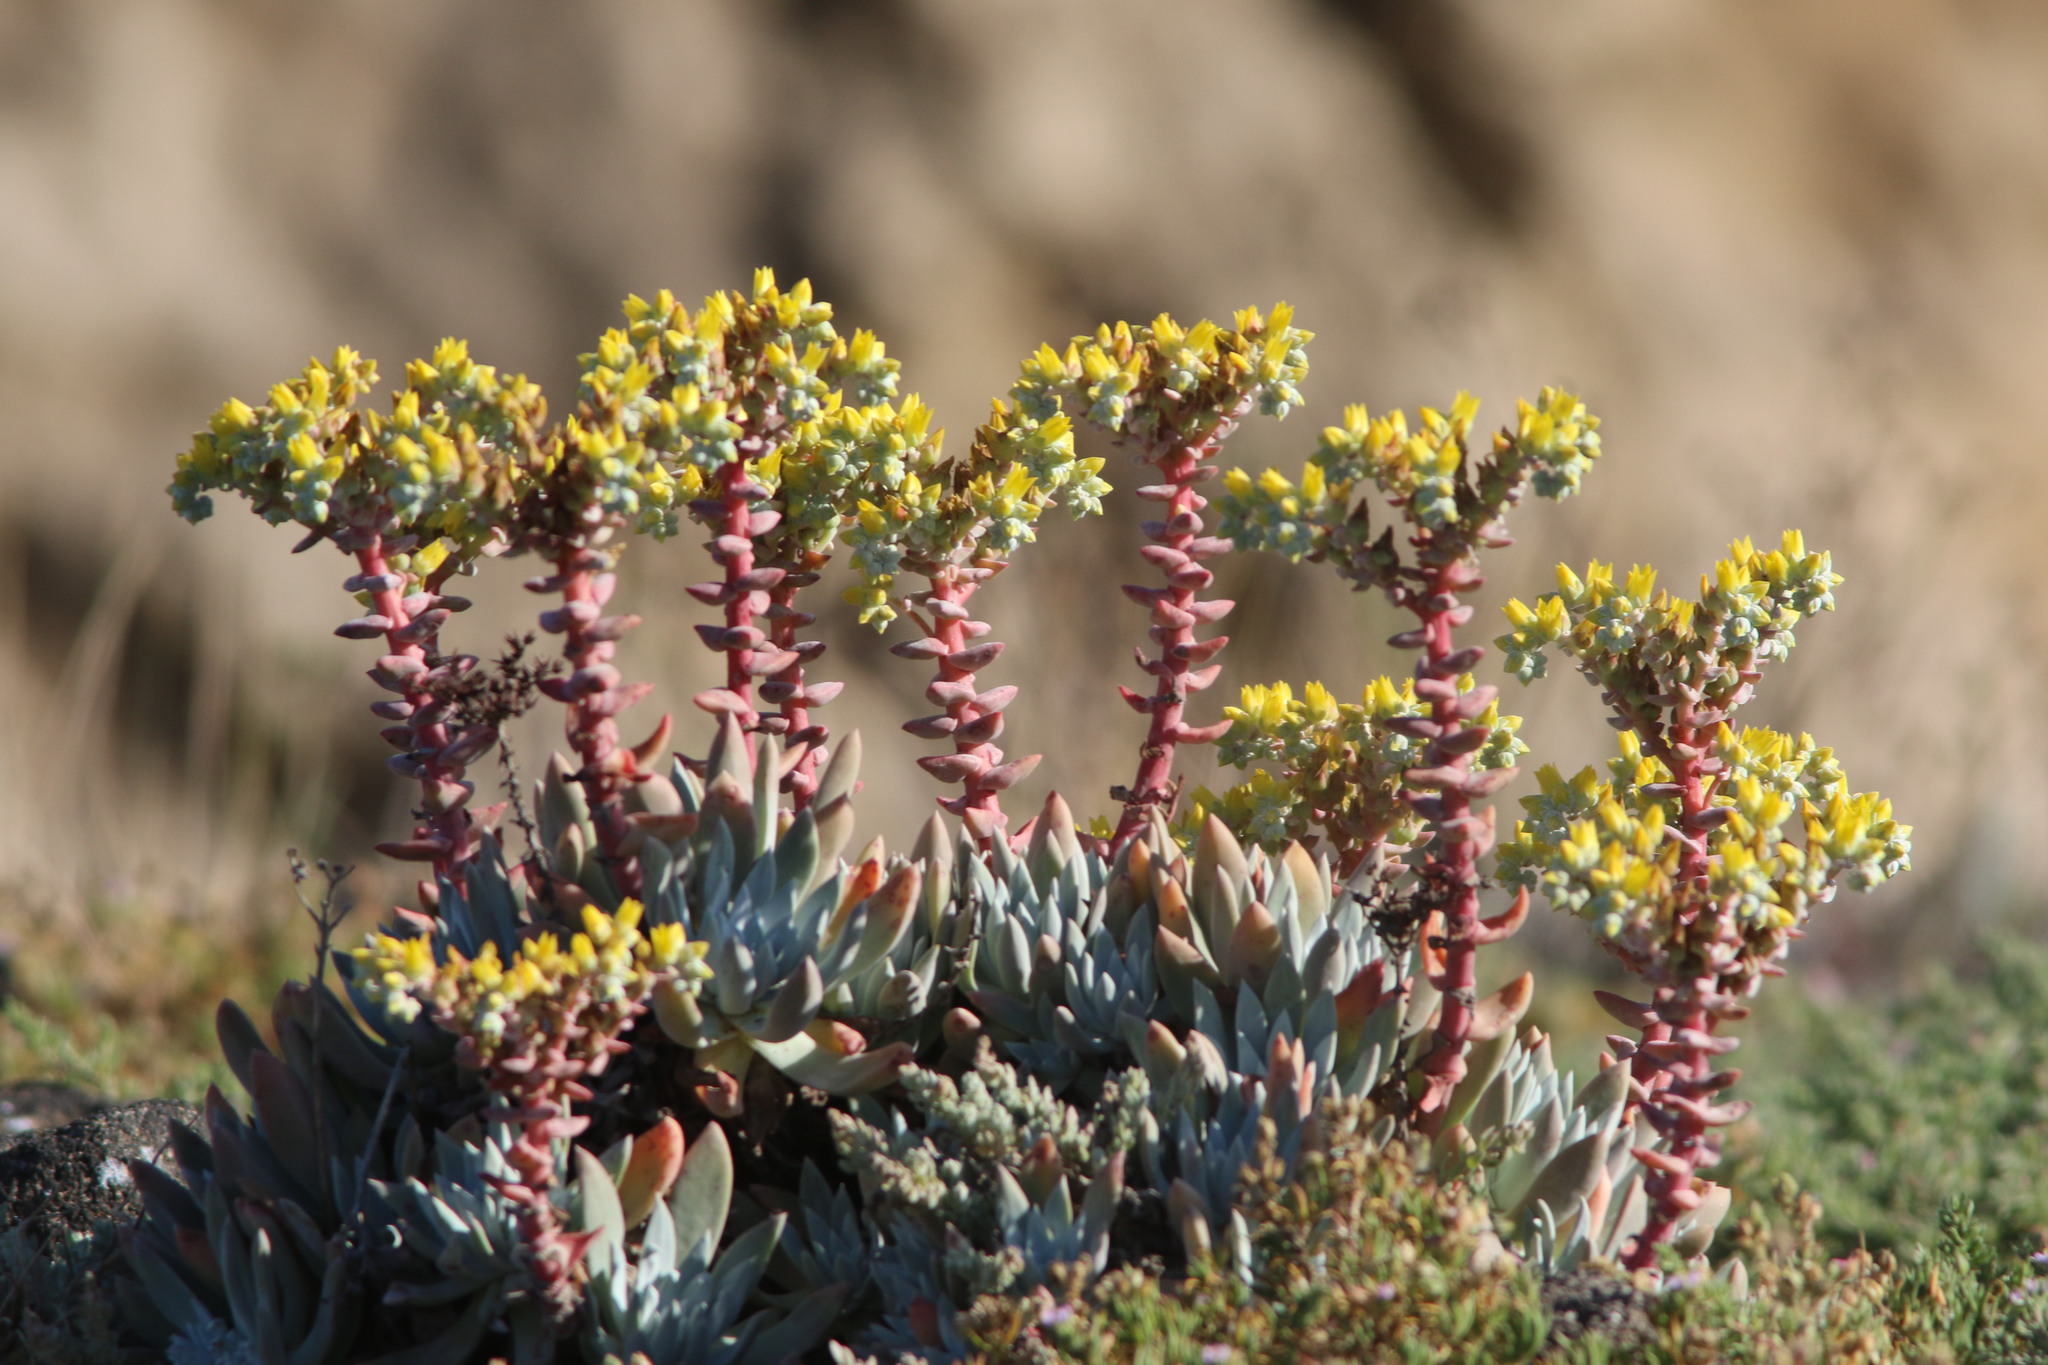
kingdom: Plantae
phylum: Tracheophyta
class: Magnoliopsida
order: Saxifragales
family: Crassulaceae
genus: Dudleya
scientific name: Dudleya greenei
